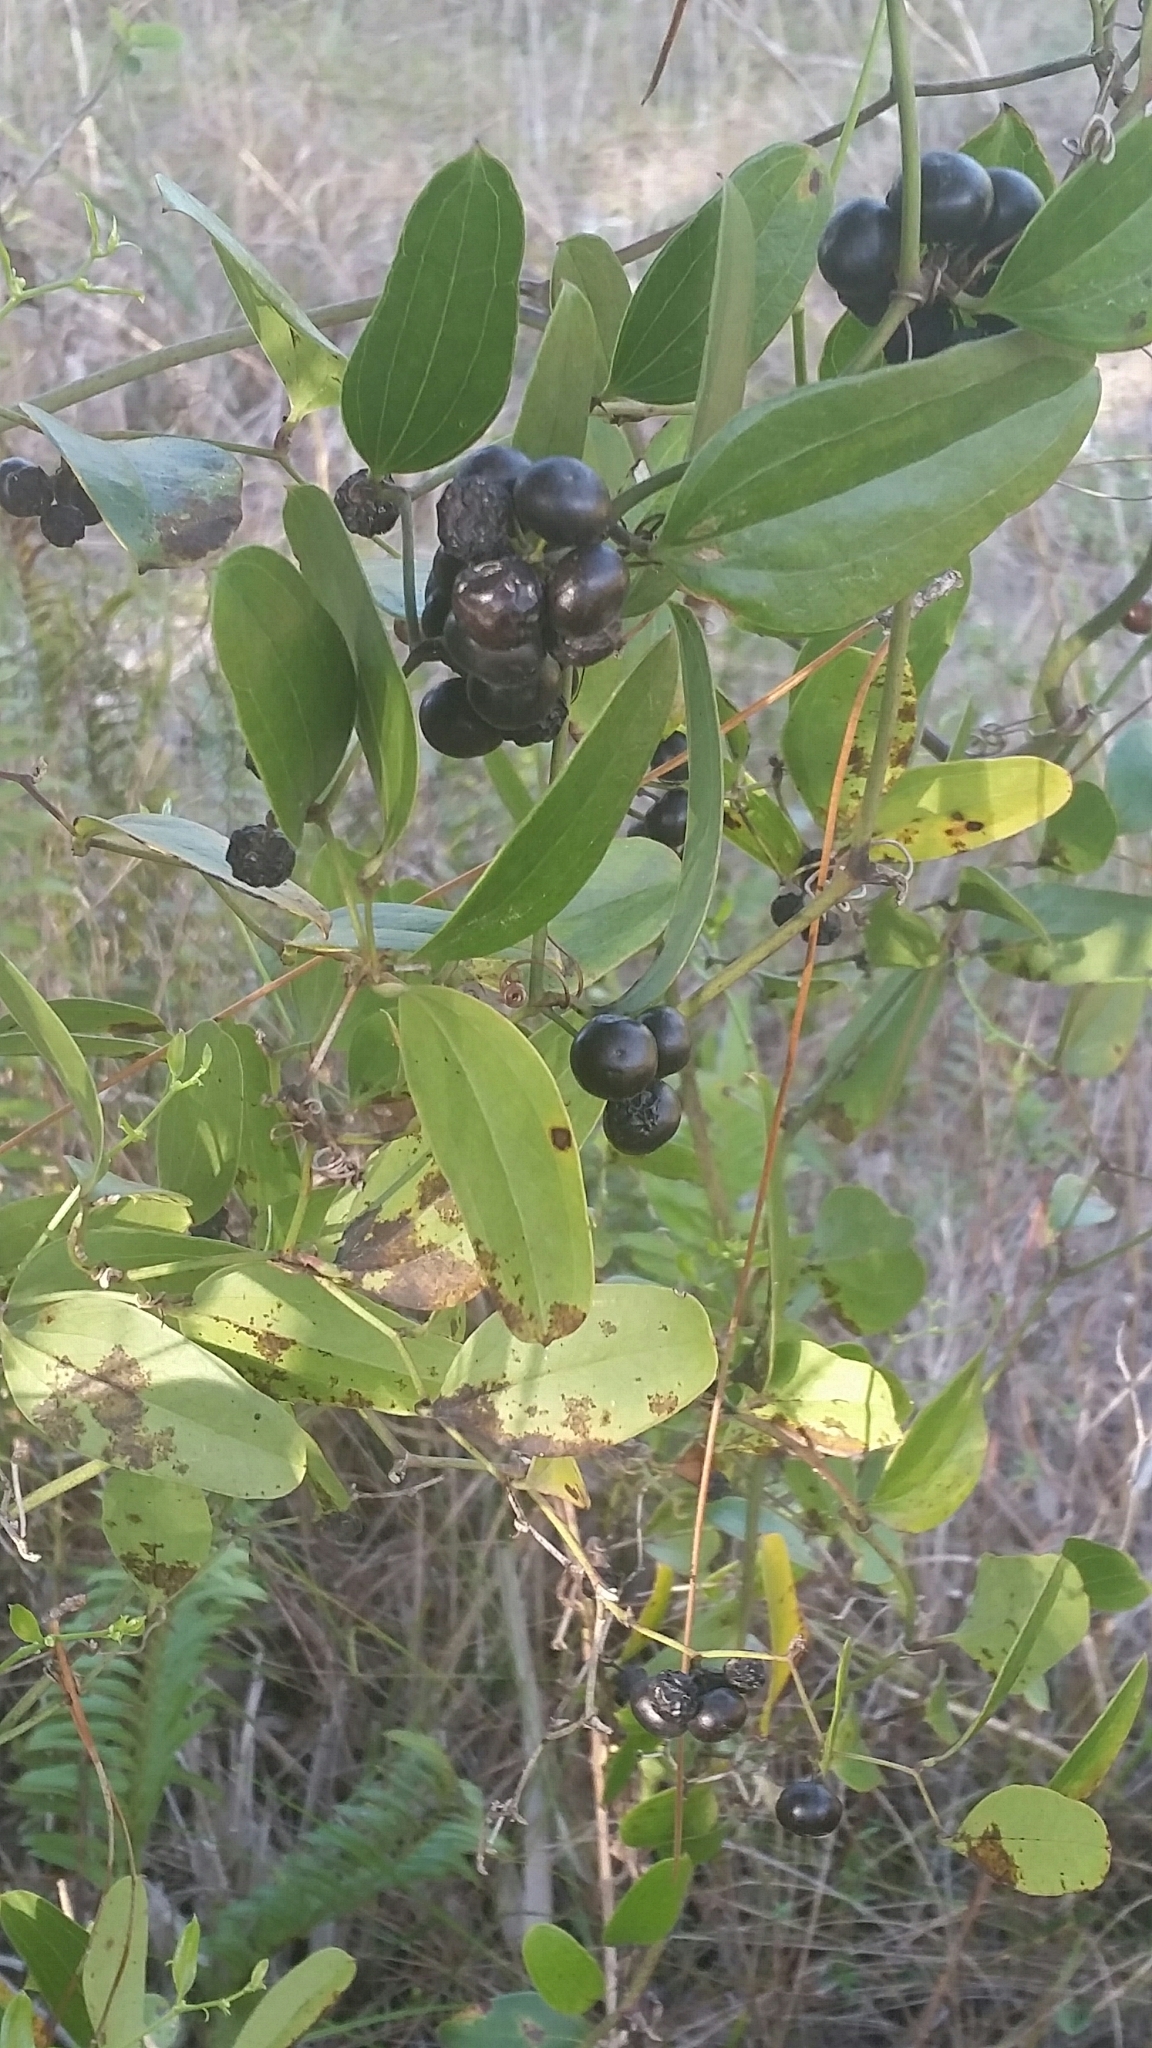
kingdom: Plantae
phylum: Tracheophyta
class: Liliopsida
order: Liliales
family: Smilacaceae
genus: Smilax
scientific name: Smilax auriculata
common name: Wild bamboo
